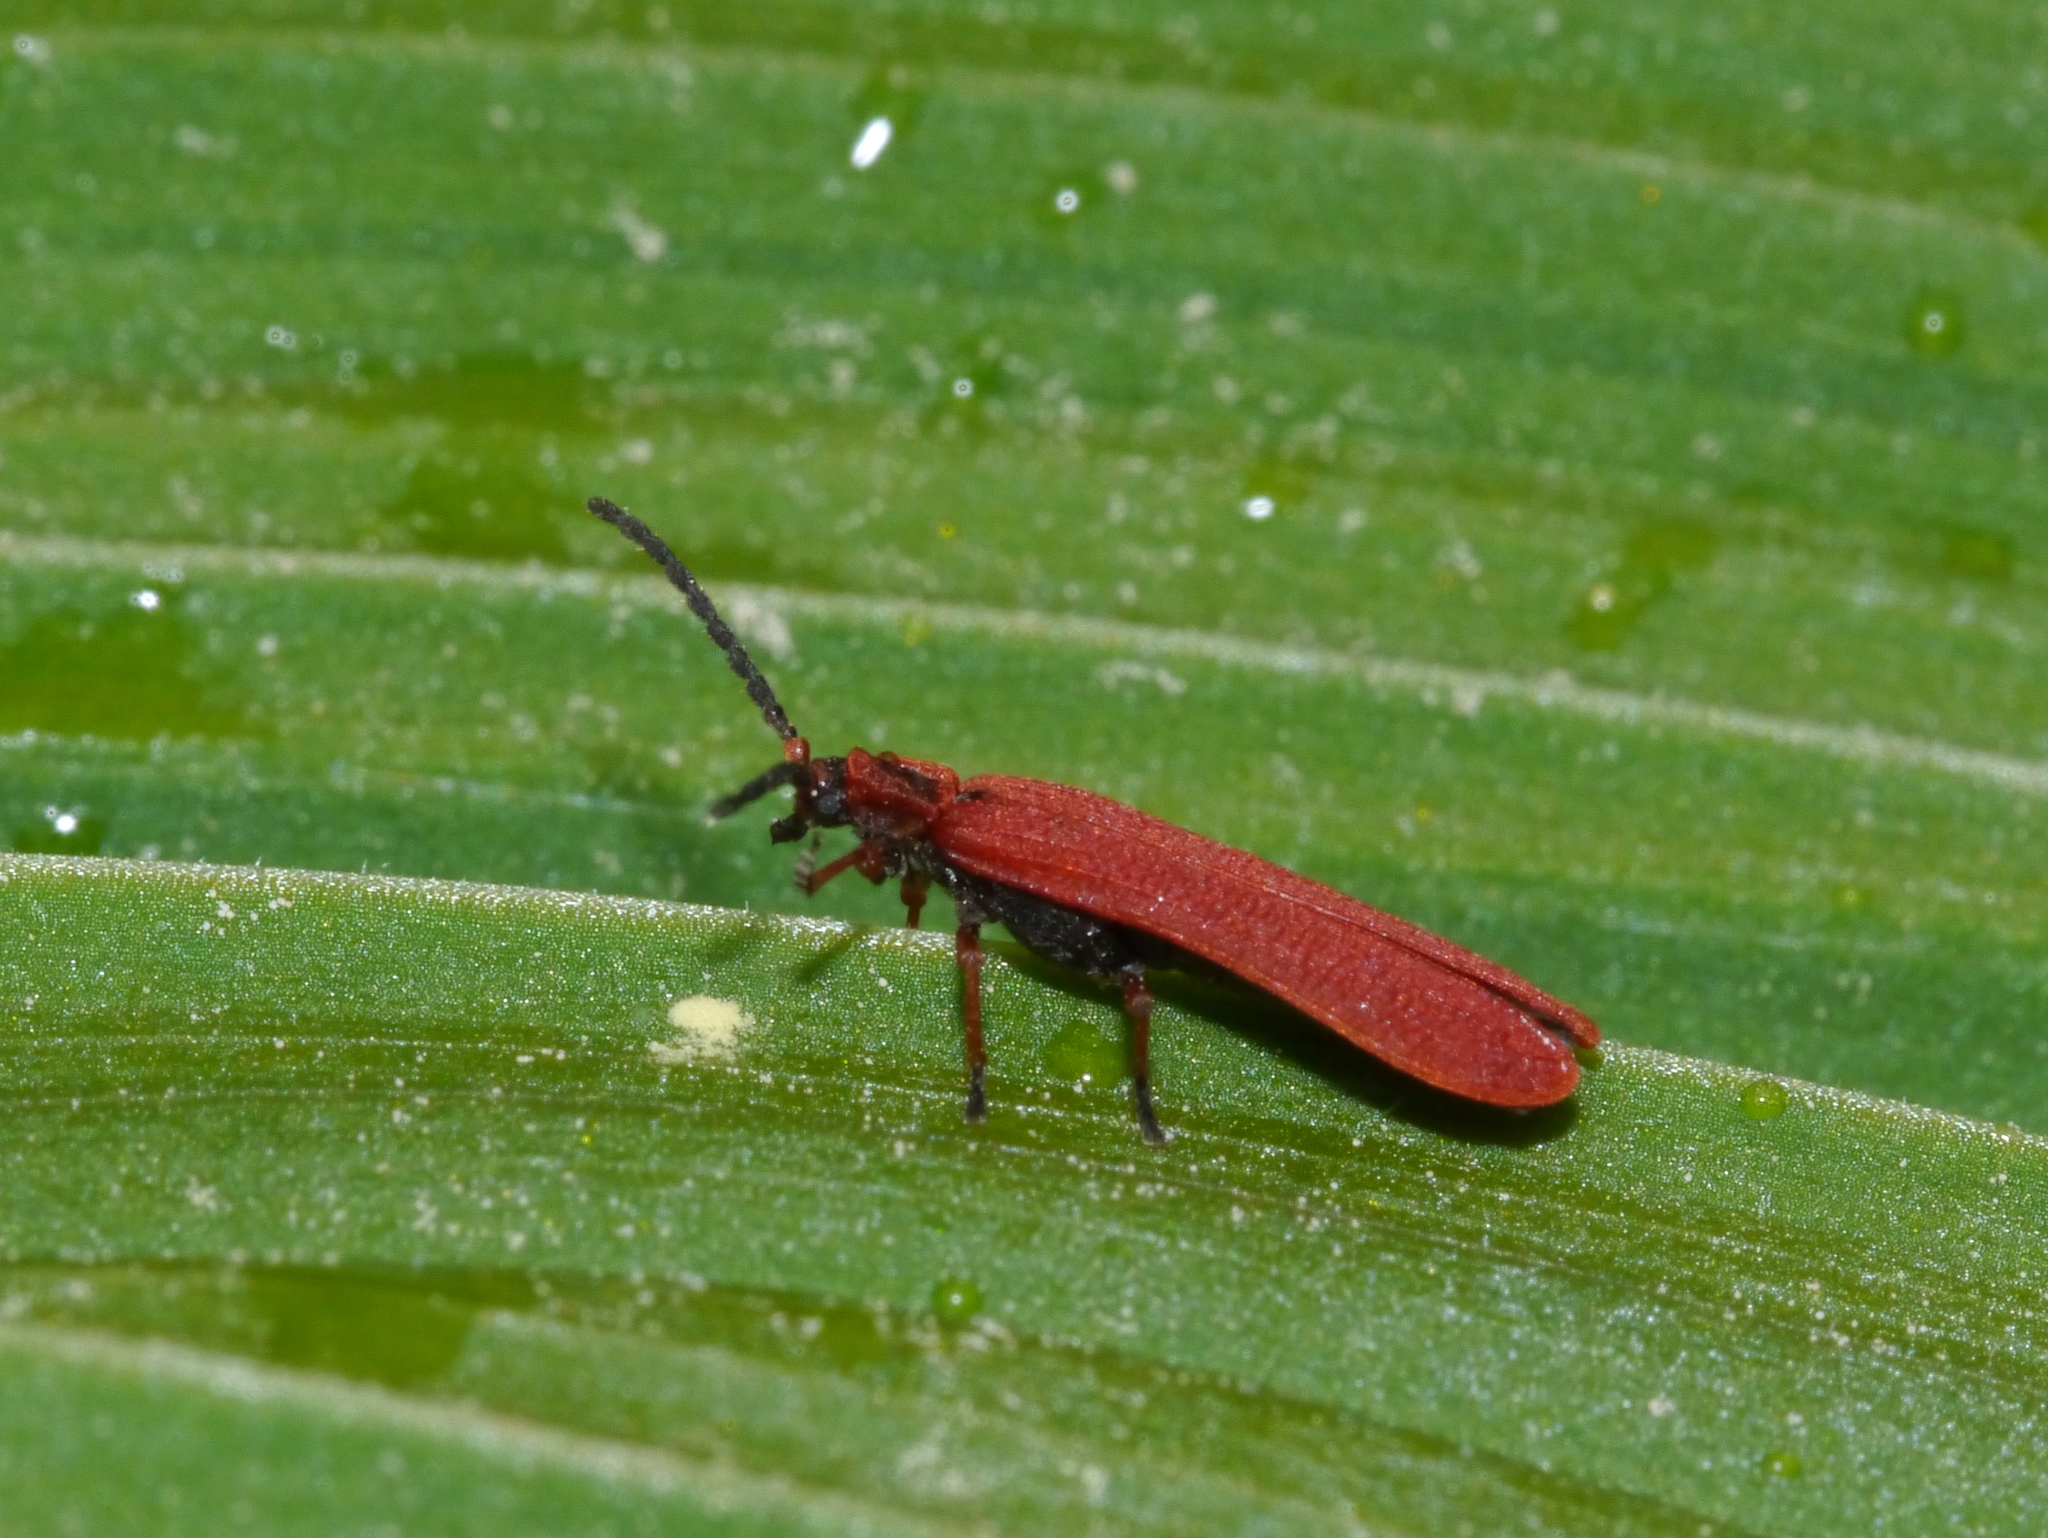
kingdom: Animalia
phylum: Arthropoda
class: Insecta
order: Coleoptera
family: Lycidae
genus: Dictyoptera
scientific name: Dictyoptera simplicipes
